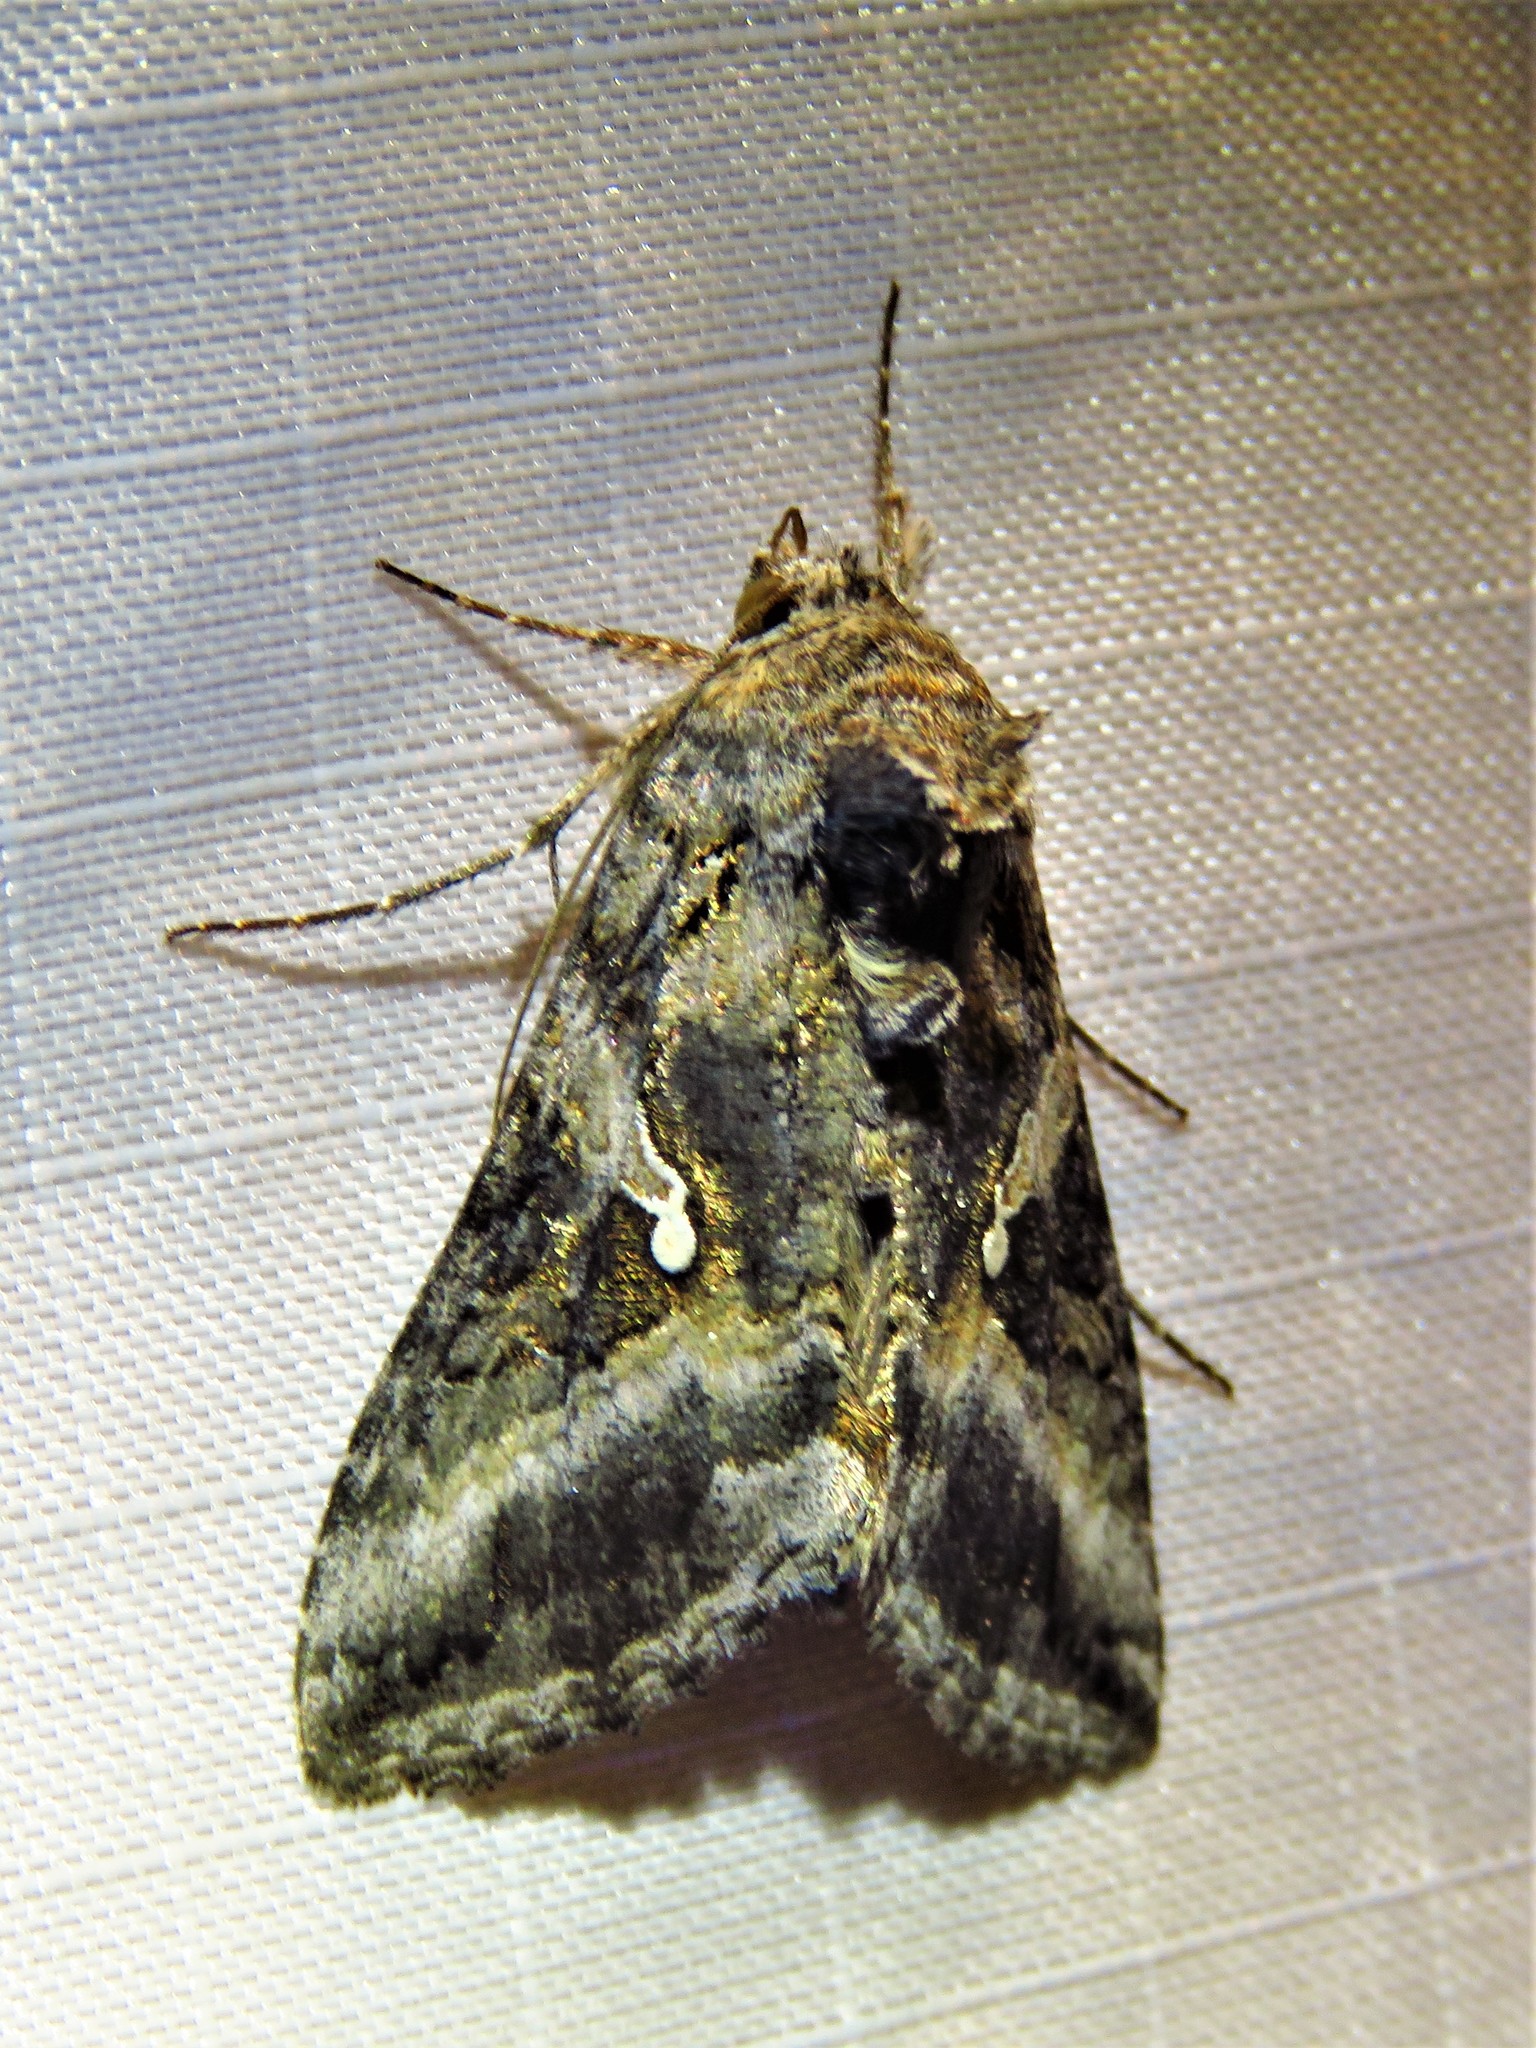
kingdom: Animalia
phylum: Arthropoda
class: Insecta
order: Lepidoptera
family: Noctuidae
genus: Rachiplusia
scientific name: Rachiplusia ou
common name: Gray looper moth
